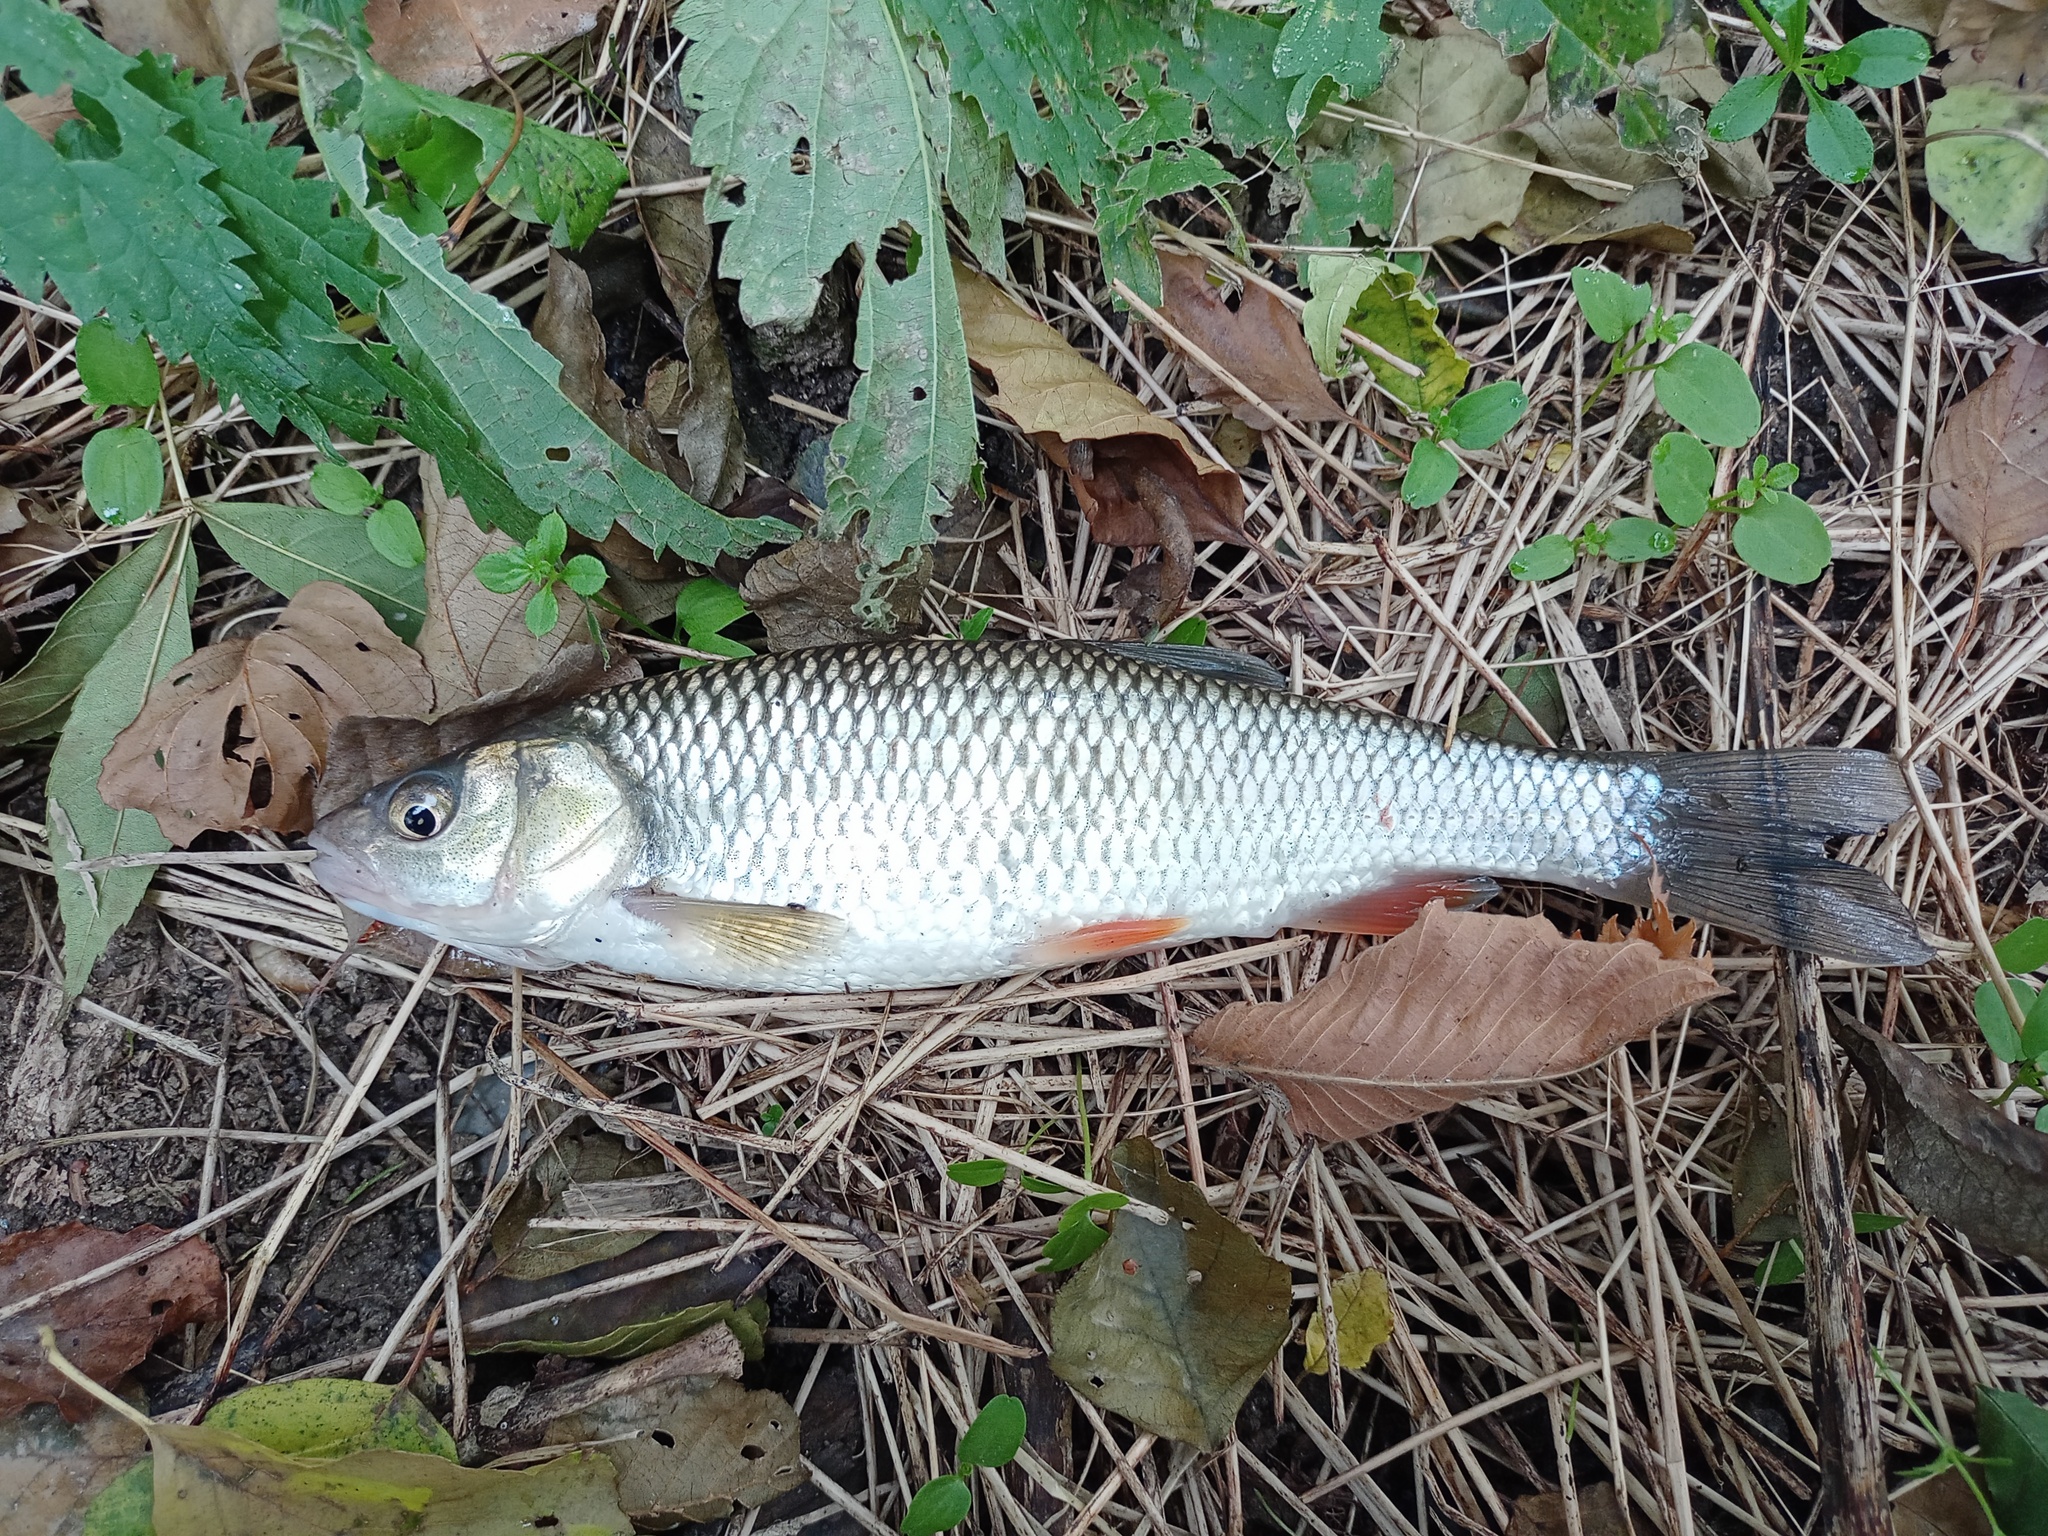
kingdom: Animalia
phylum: Chordata
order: Cypriniformes
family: Cyprinidae
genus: Squalius
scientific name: Squalius cephalus
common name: Chub
